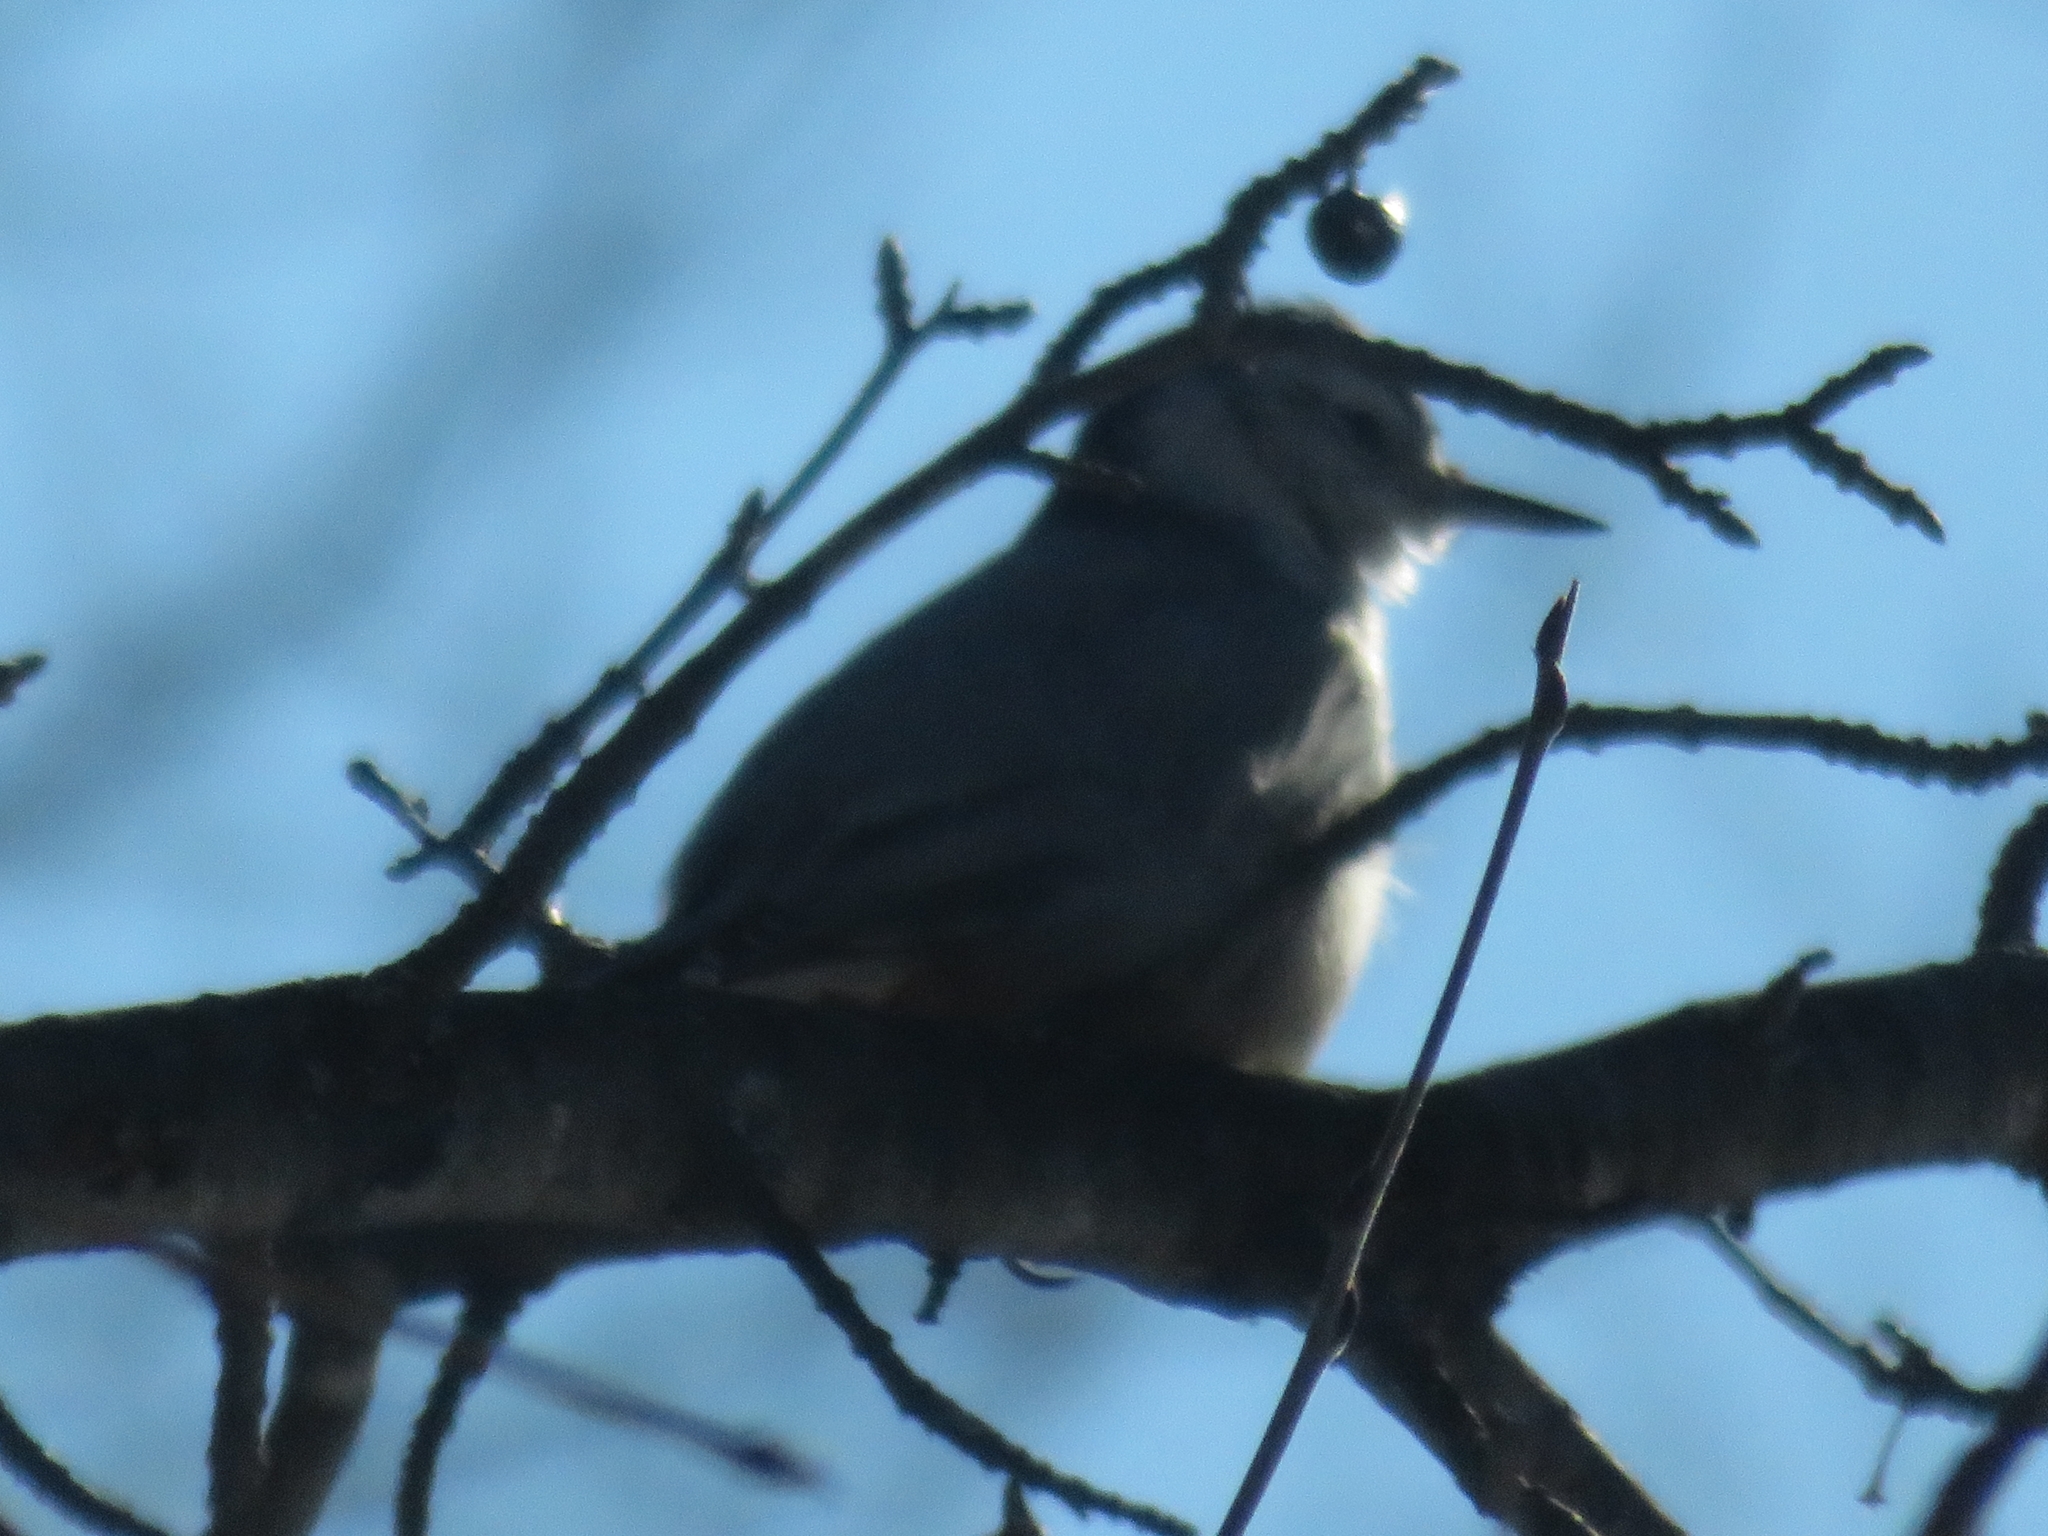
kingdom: Animalia
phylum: Chordata
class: Aves
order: Passeriformes
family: Sittidae
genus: Sitta
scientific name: Sitta carolinensis
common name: White-breasted nuthatch
